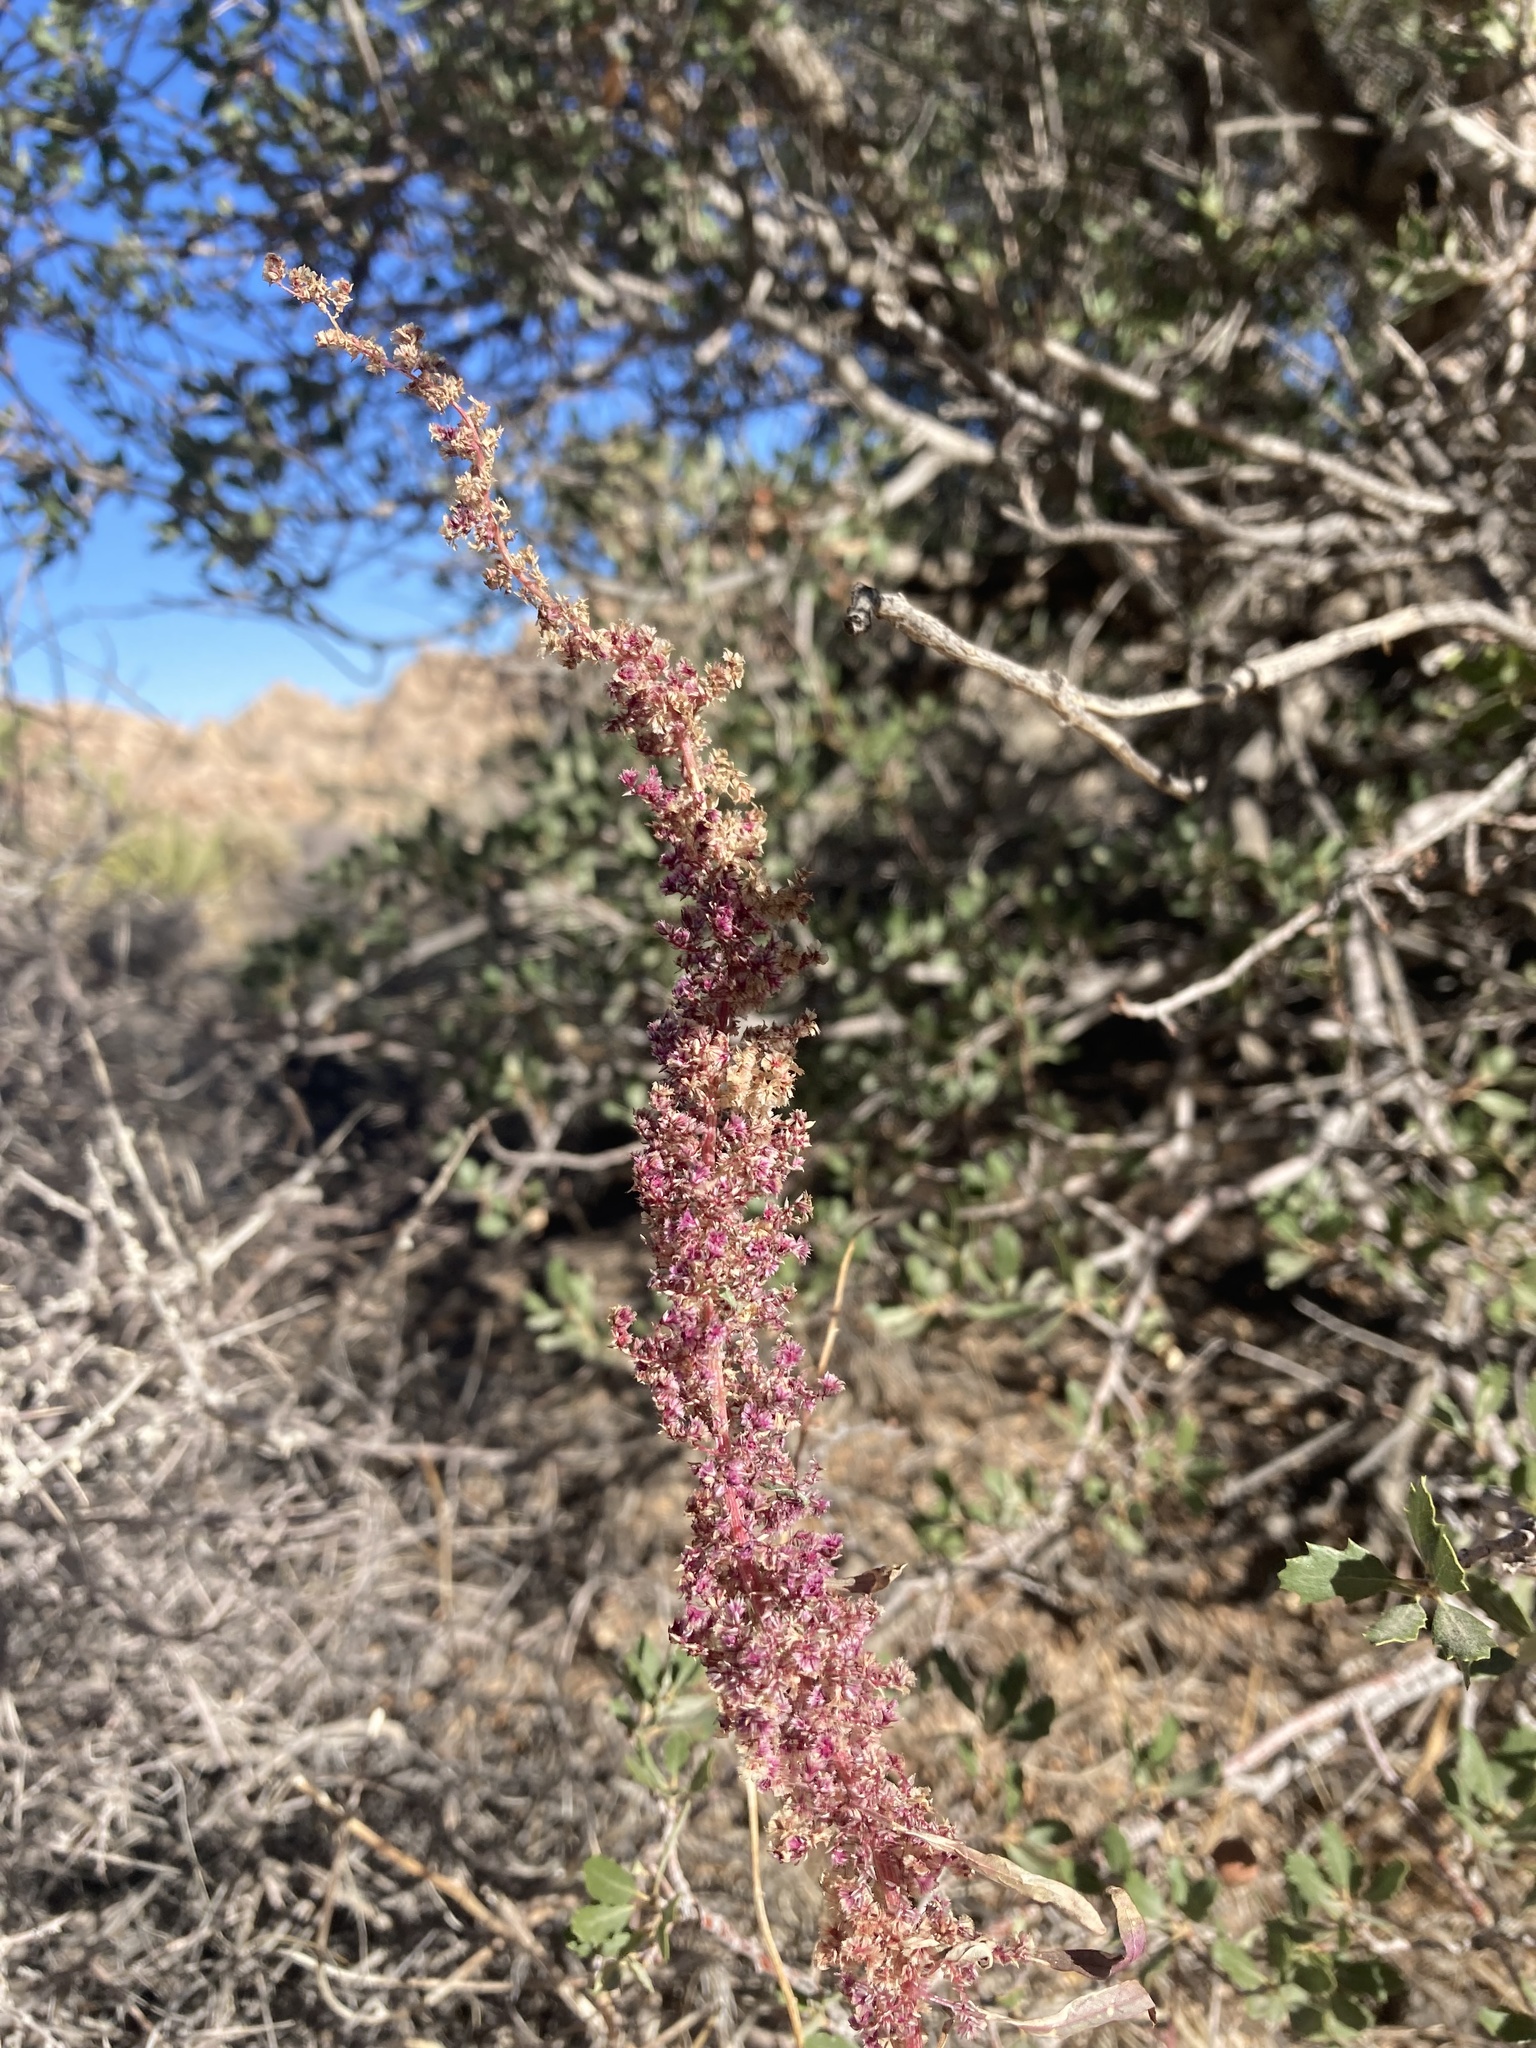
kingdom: Plantae
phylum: Tracheophyta
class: Magnoliopsida
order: Caryophyllales
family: Amaranthaceae
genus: Amaranthus
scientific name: Amaranthus fimbriatus
